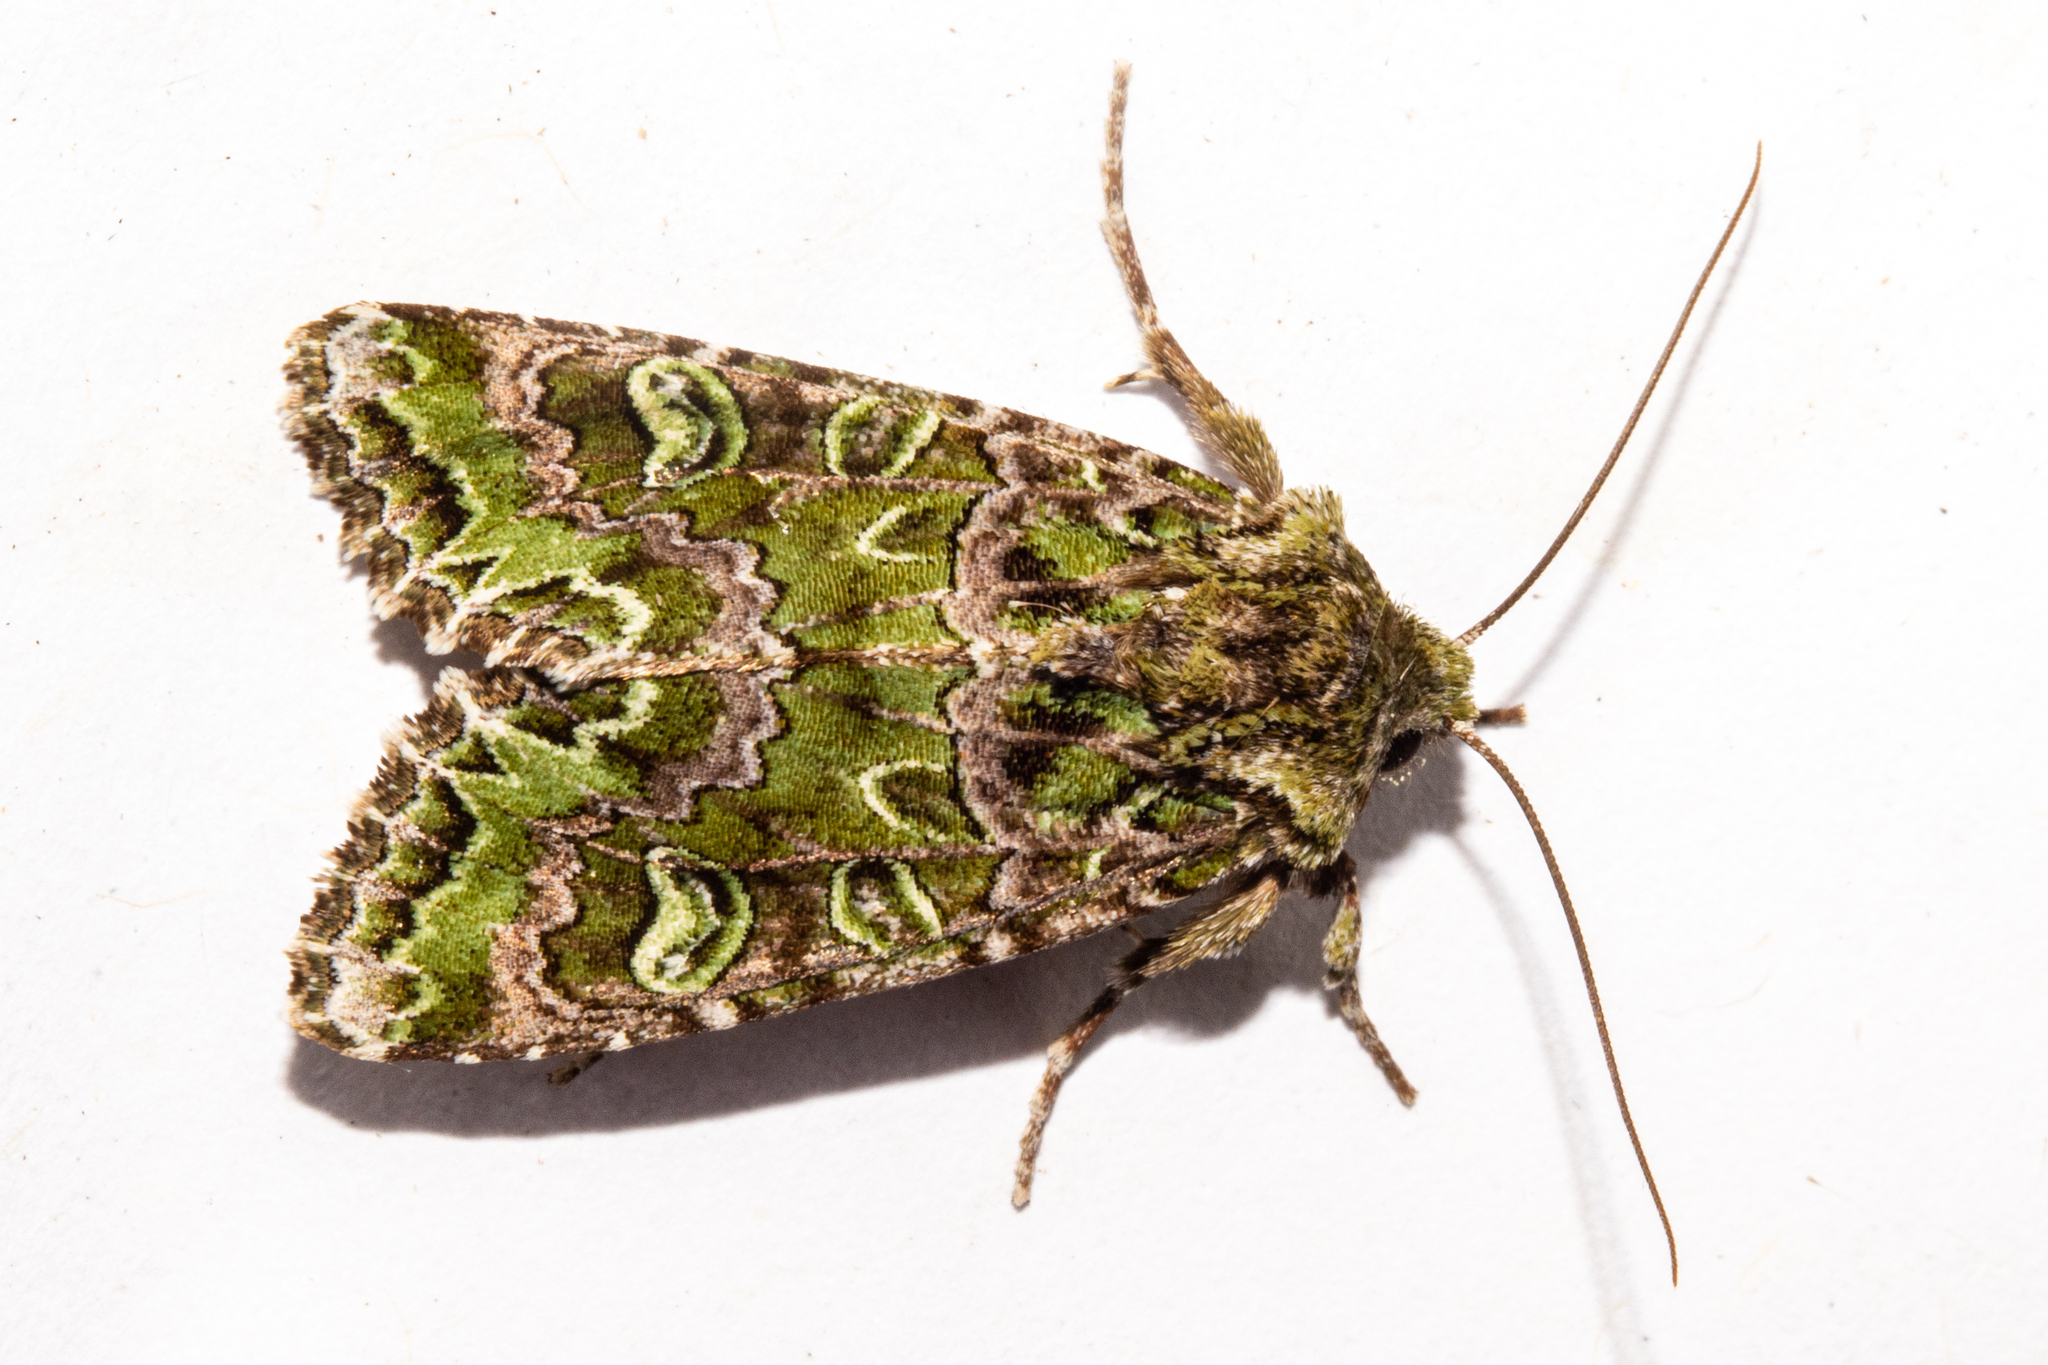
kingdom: Animalia
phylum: Arthropoda
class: Insecta
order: Lepidoptera
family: Noctuidae
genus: Ichneutica
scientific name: Ichneutica chlorodonta
